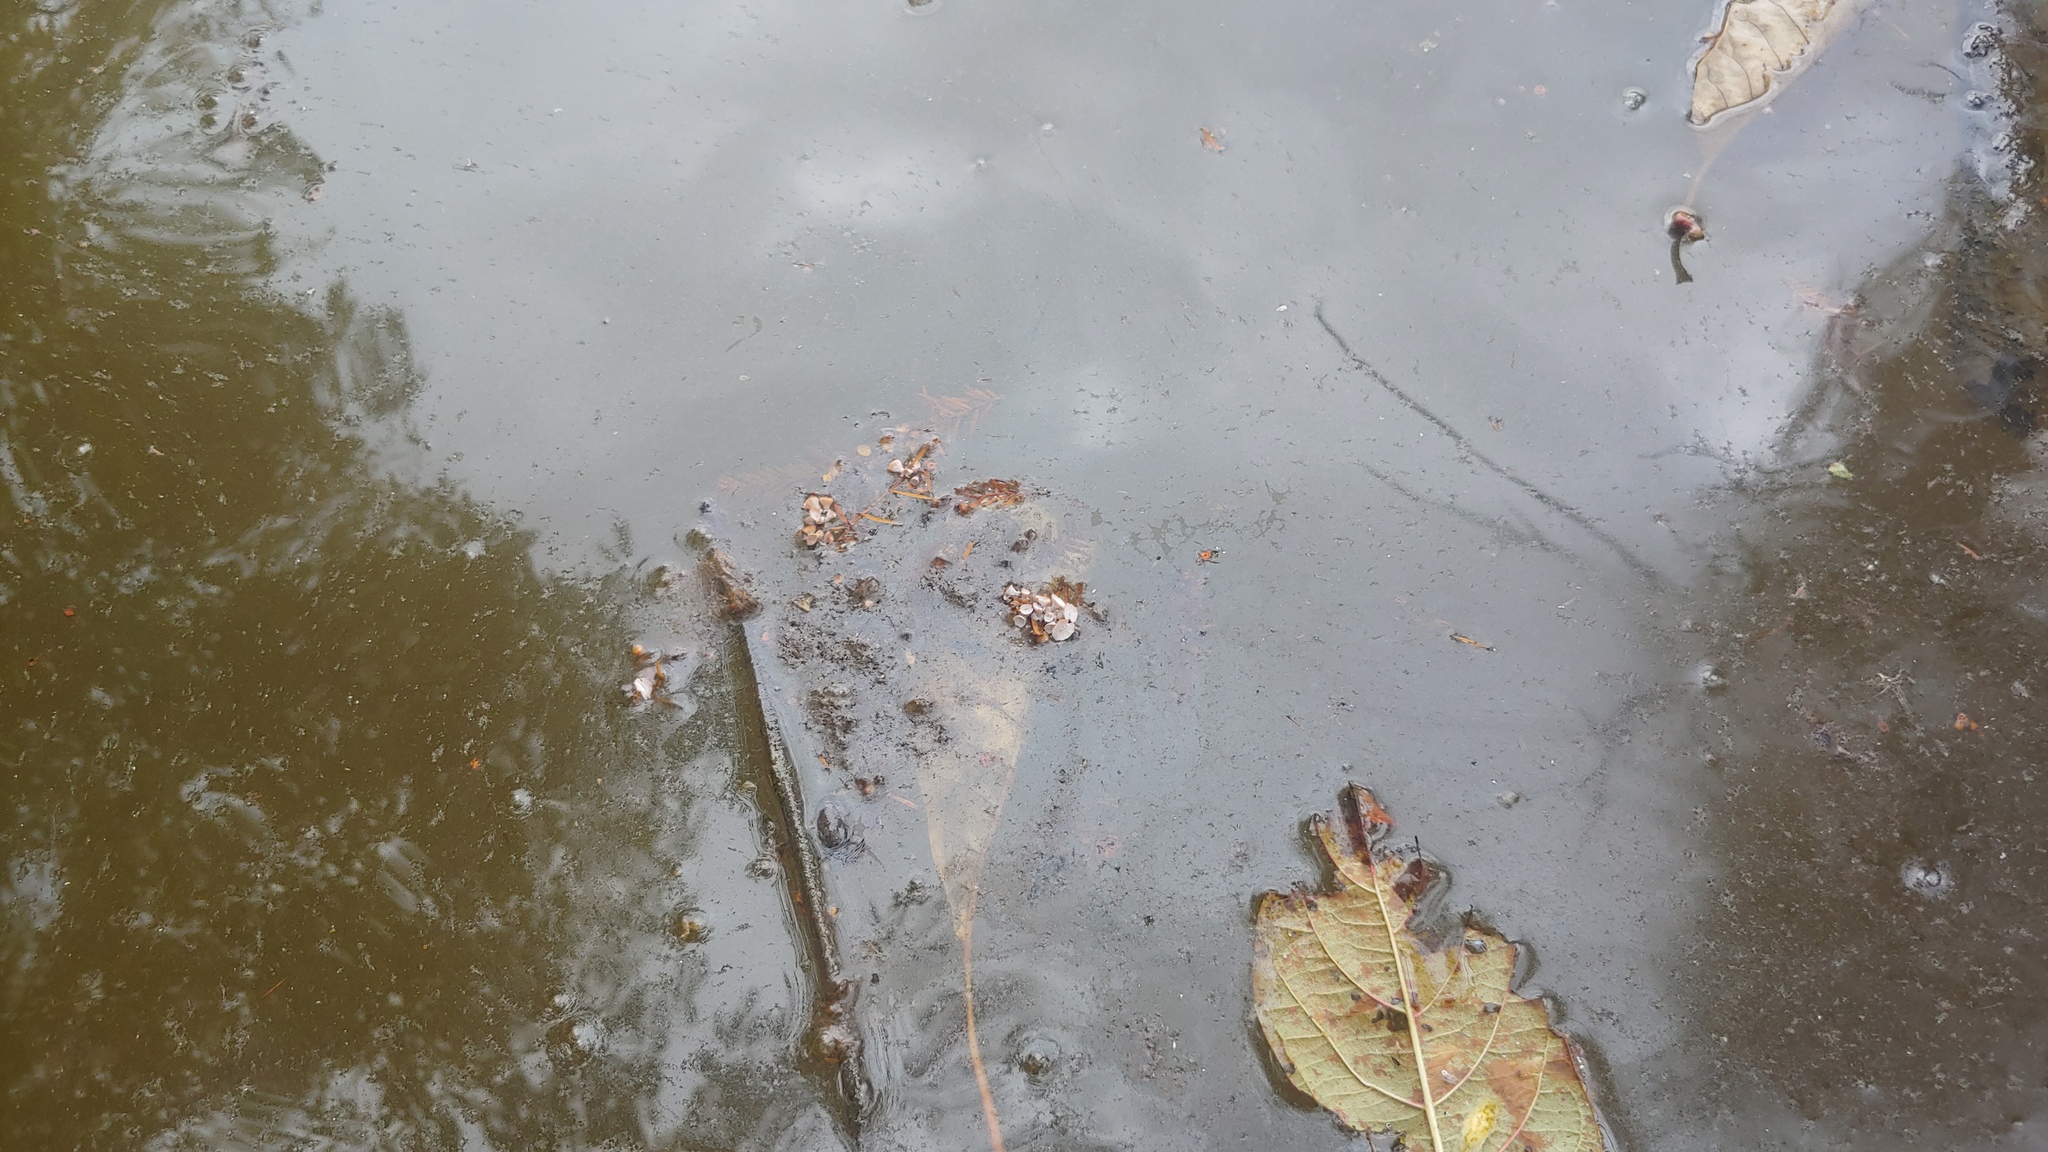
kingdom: Animalia
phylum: Arthropoda
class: Insecta
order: Diptera
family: Cecidomyiidae
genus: Taxodiomyia
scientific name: Taxodiomyia cupressi
